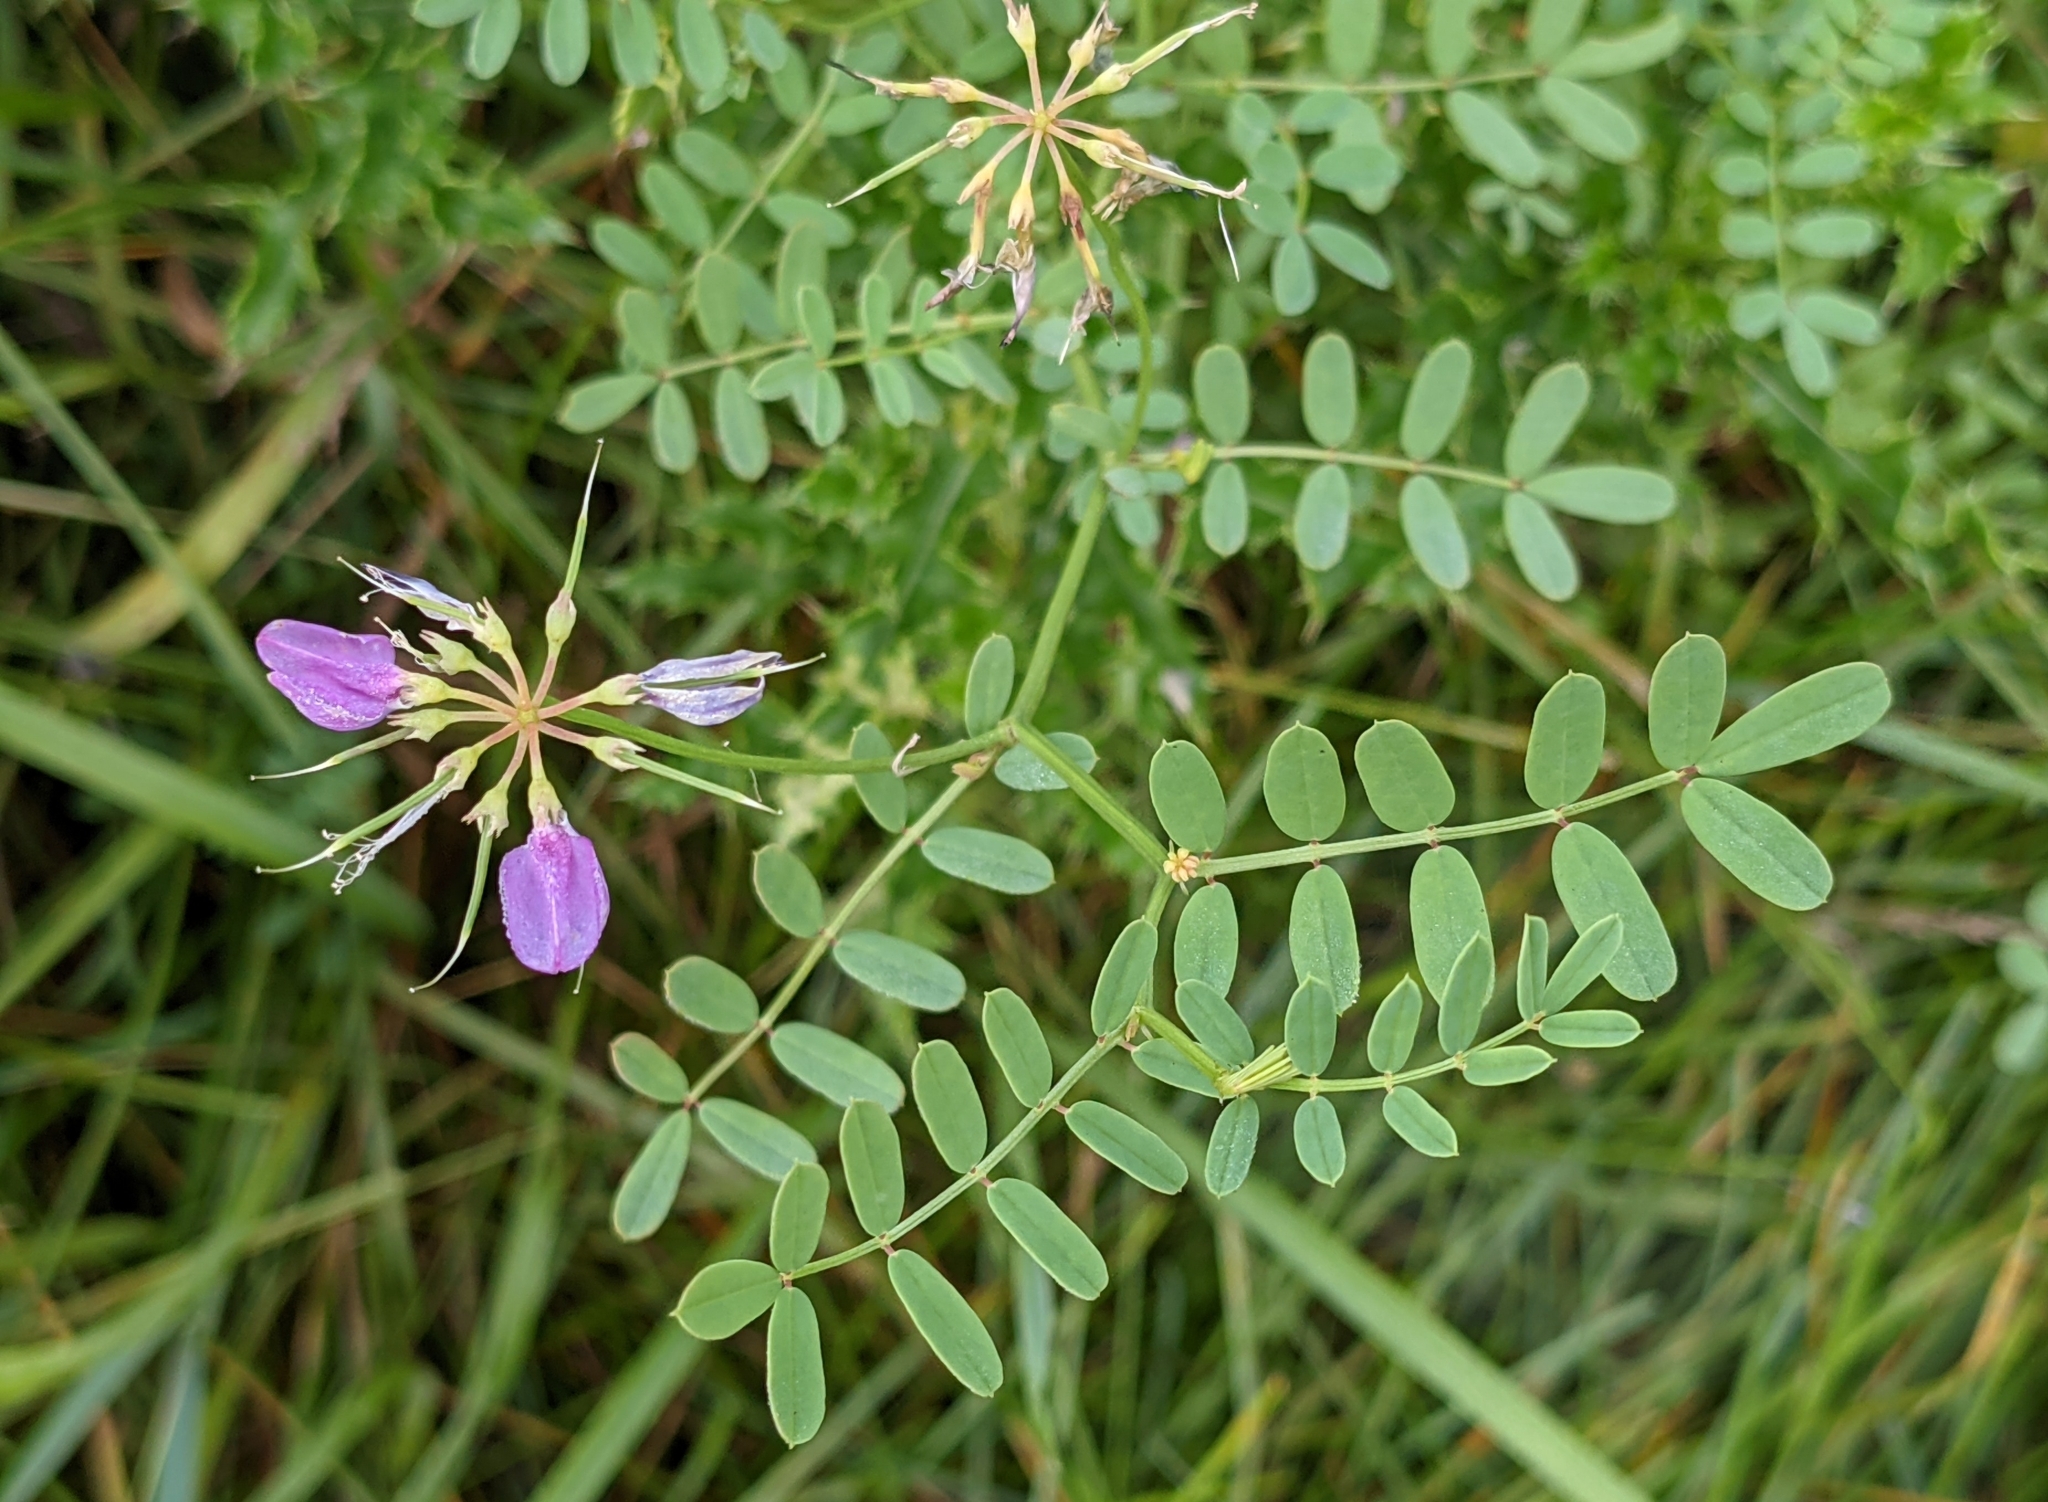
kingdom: Plantae
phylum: Tracheophyta
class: Magnoliopsida
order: Fabales
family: Fabaceae
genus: Coronilla
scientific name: Coronilla varia
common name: Crownvetch
